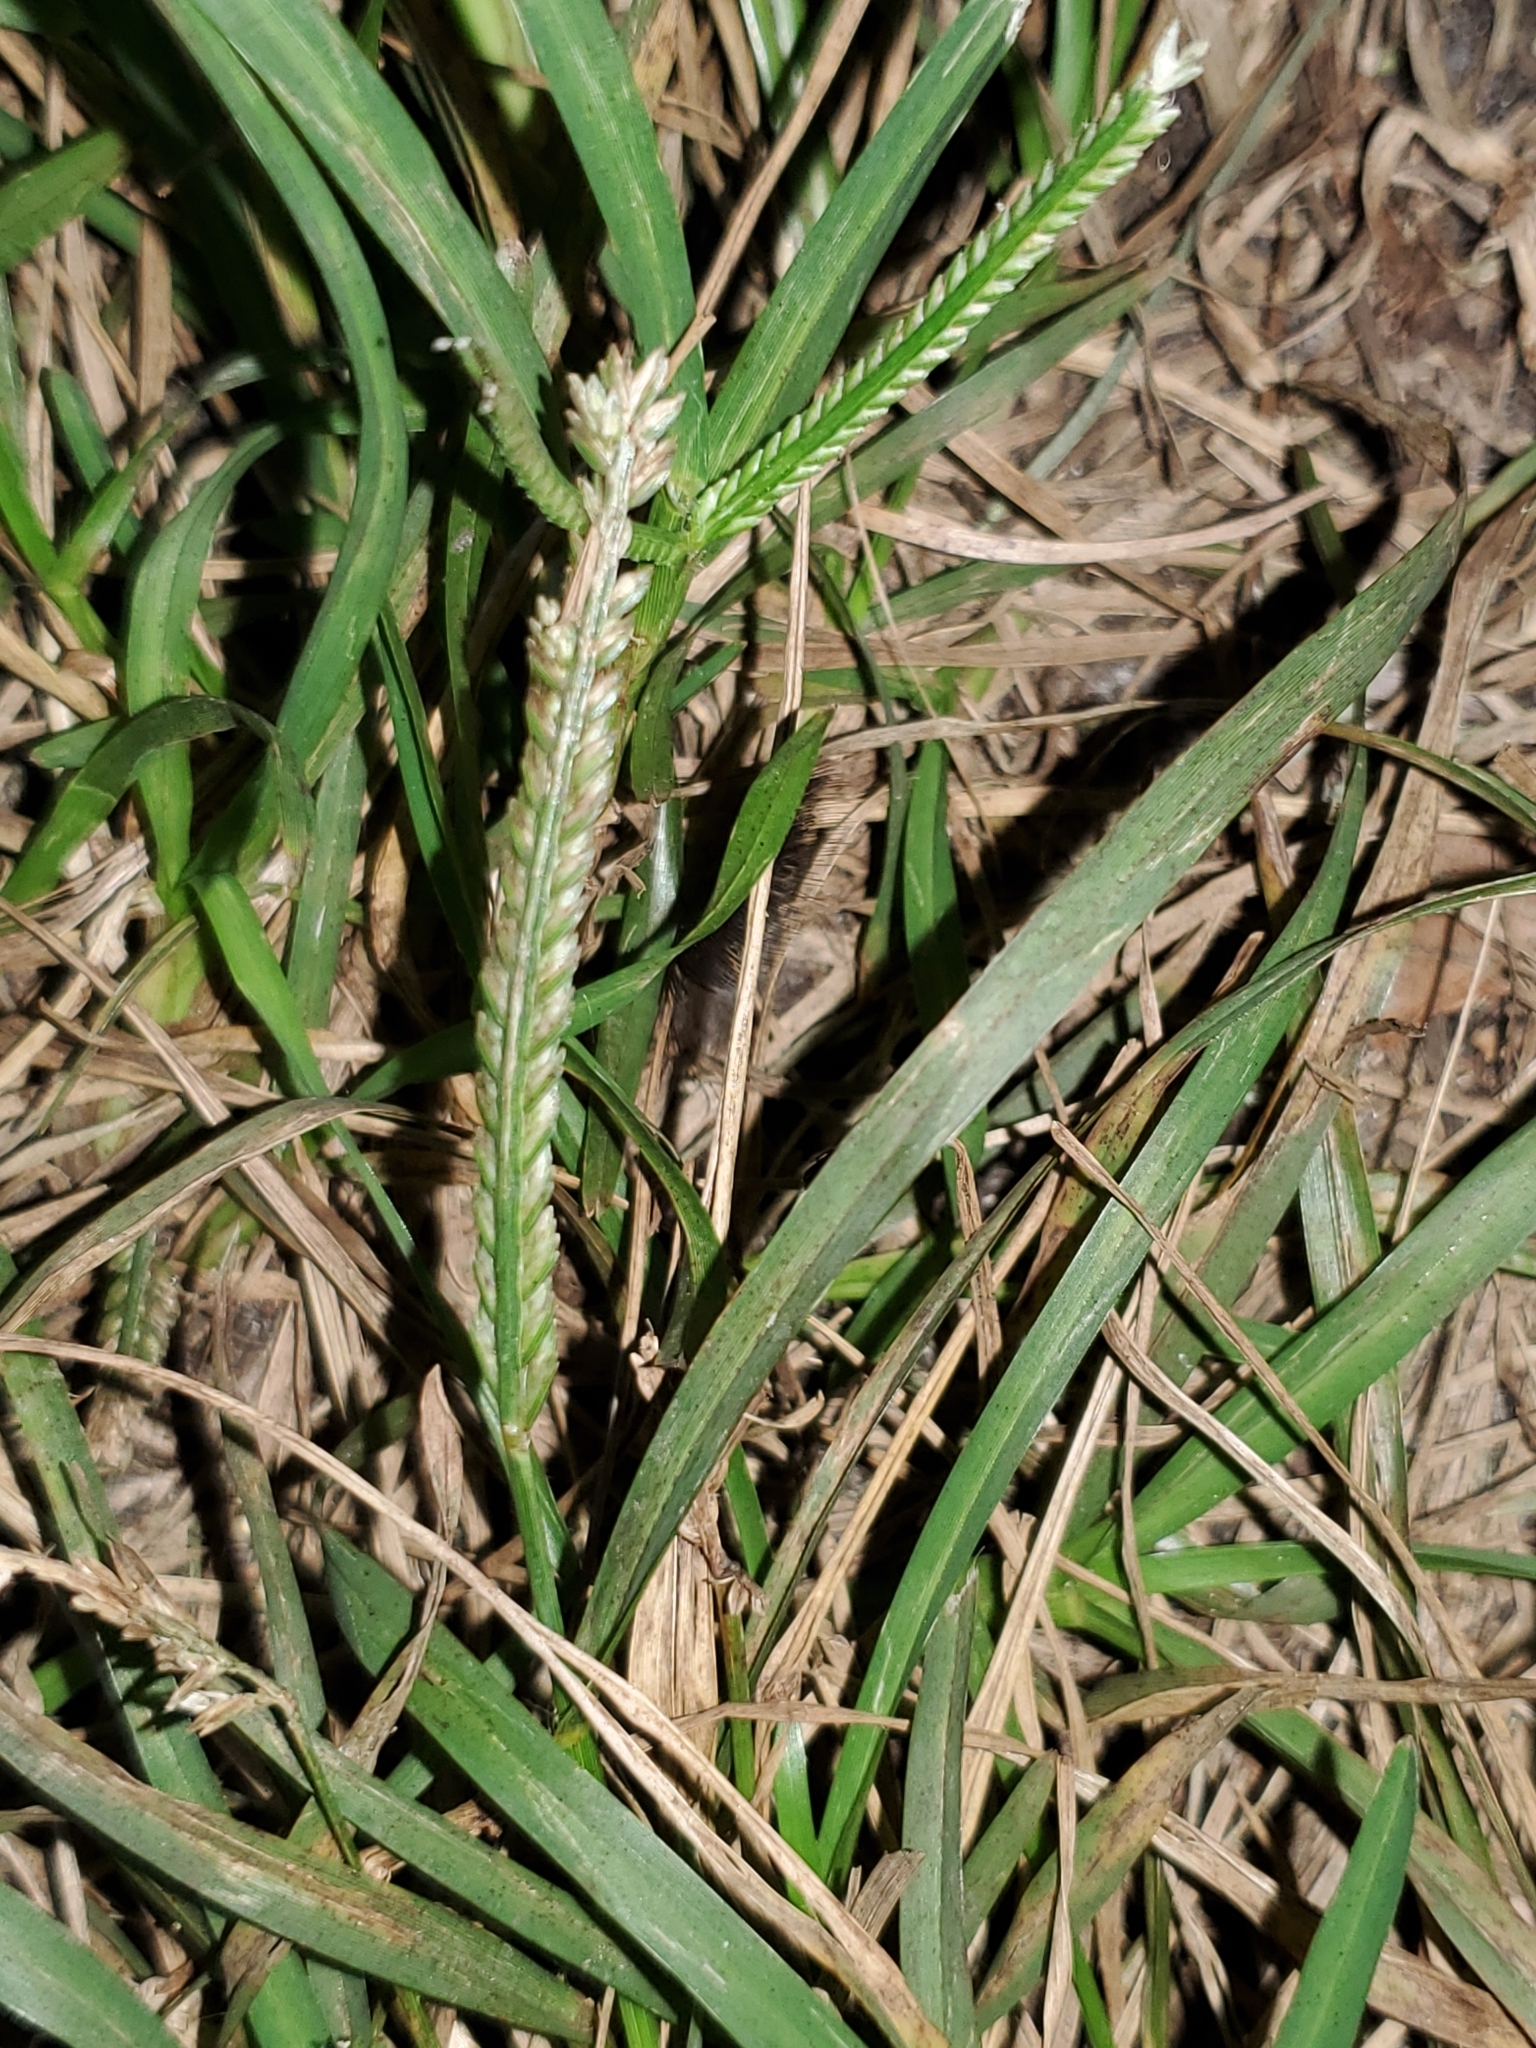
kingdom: Plantae
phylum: Tracheophyta
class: Liliopsida
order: Poales
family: Poaceae
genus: Eleusine
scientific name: Eleusine indica
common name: Yard-grass
